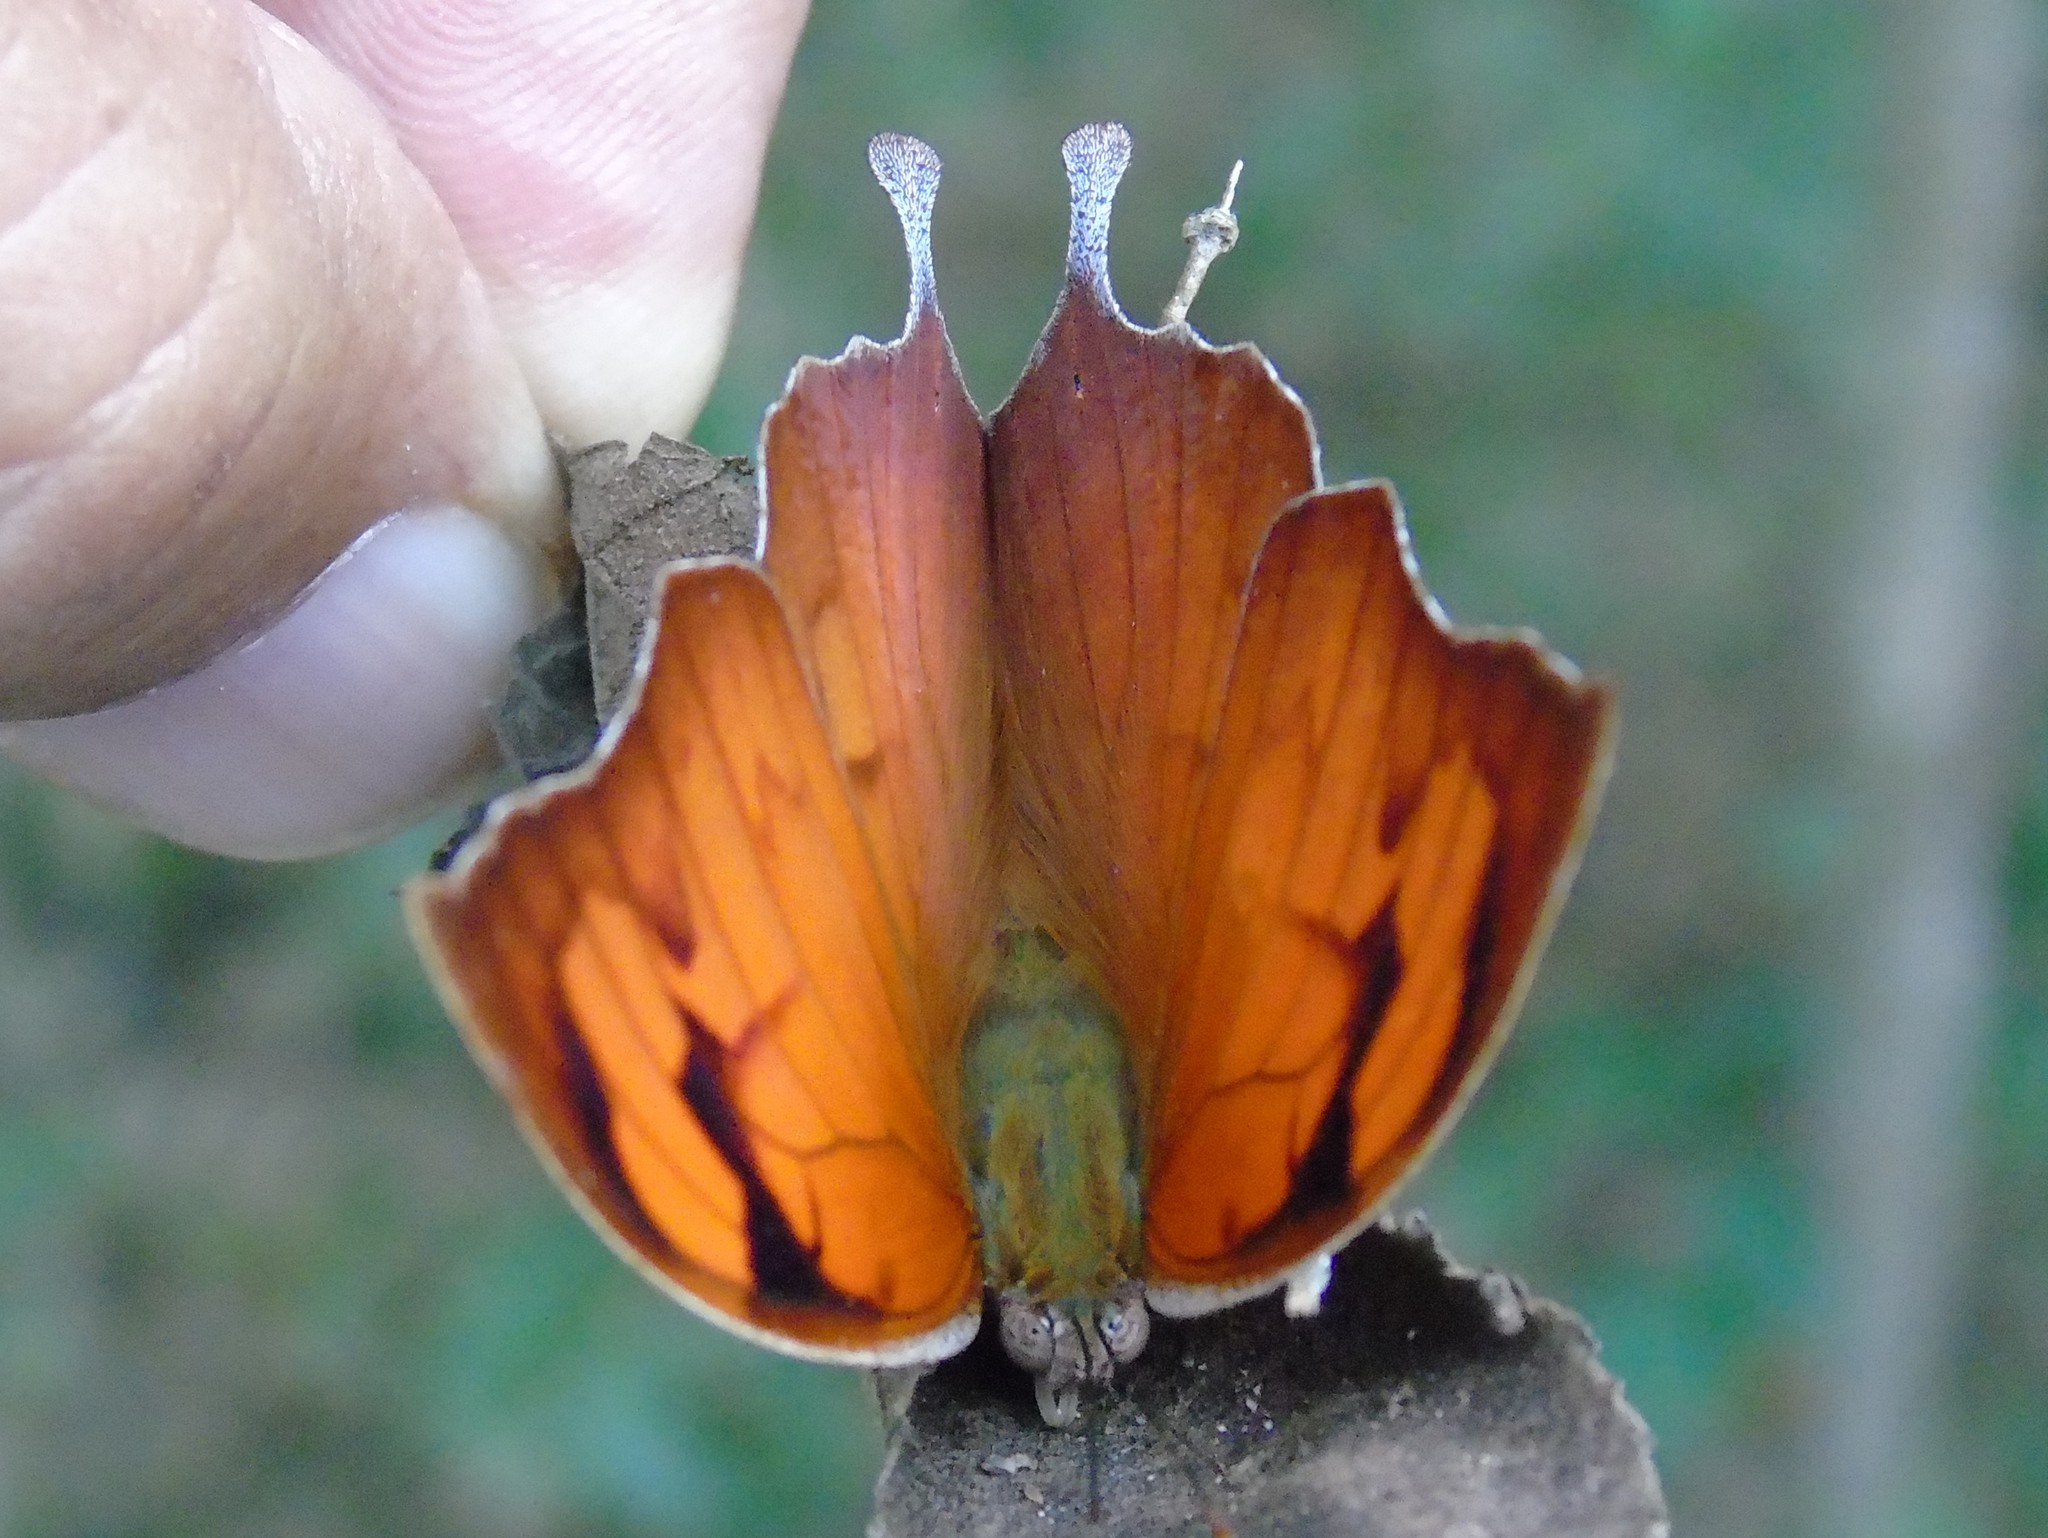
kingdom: Animalia
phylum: Arthropoda
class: Insecta
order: Lepidoptera
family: Nymphalidae
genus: Fountainea
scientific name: Fountainea
